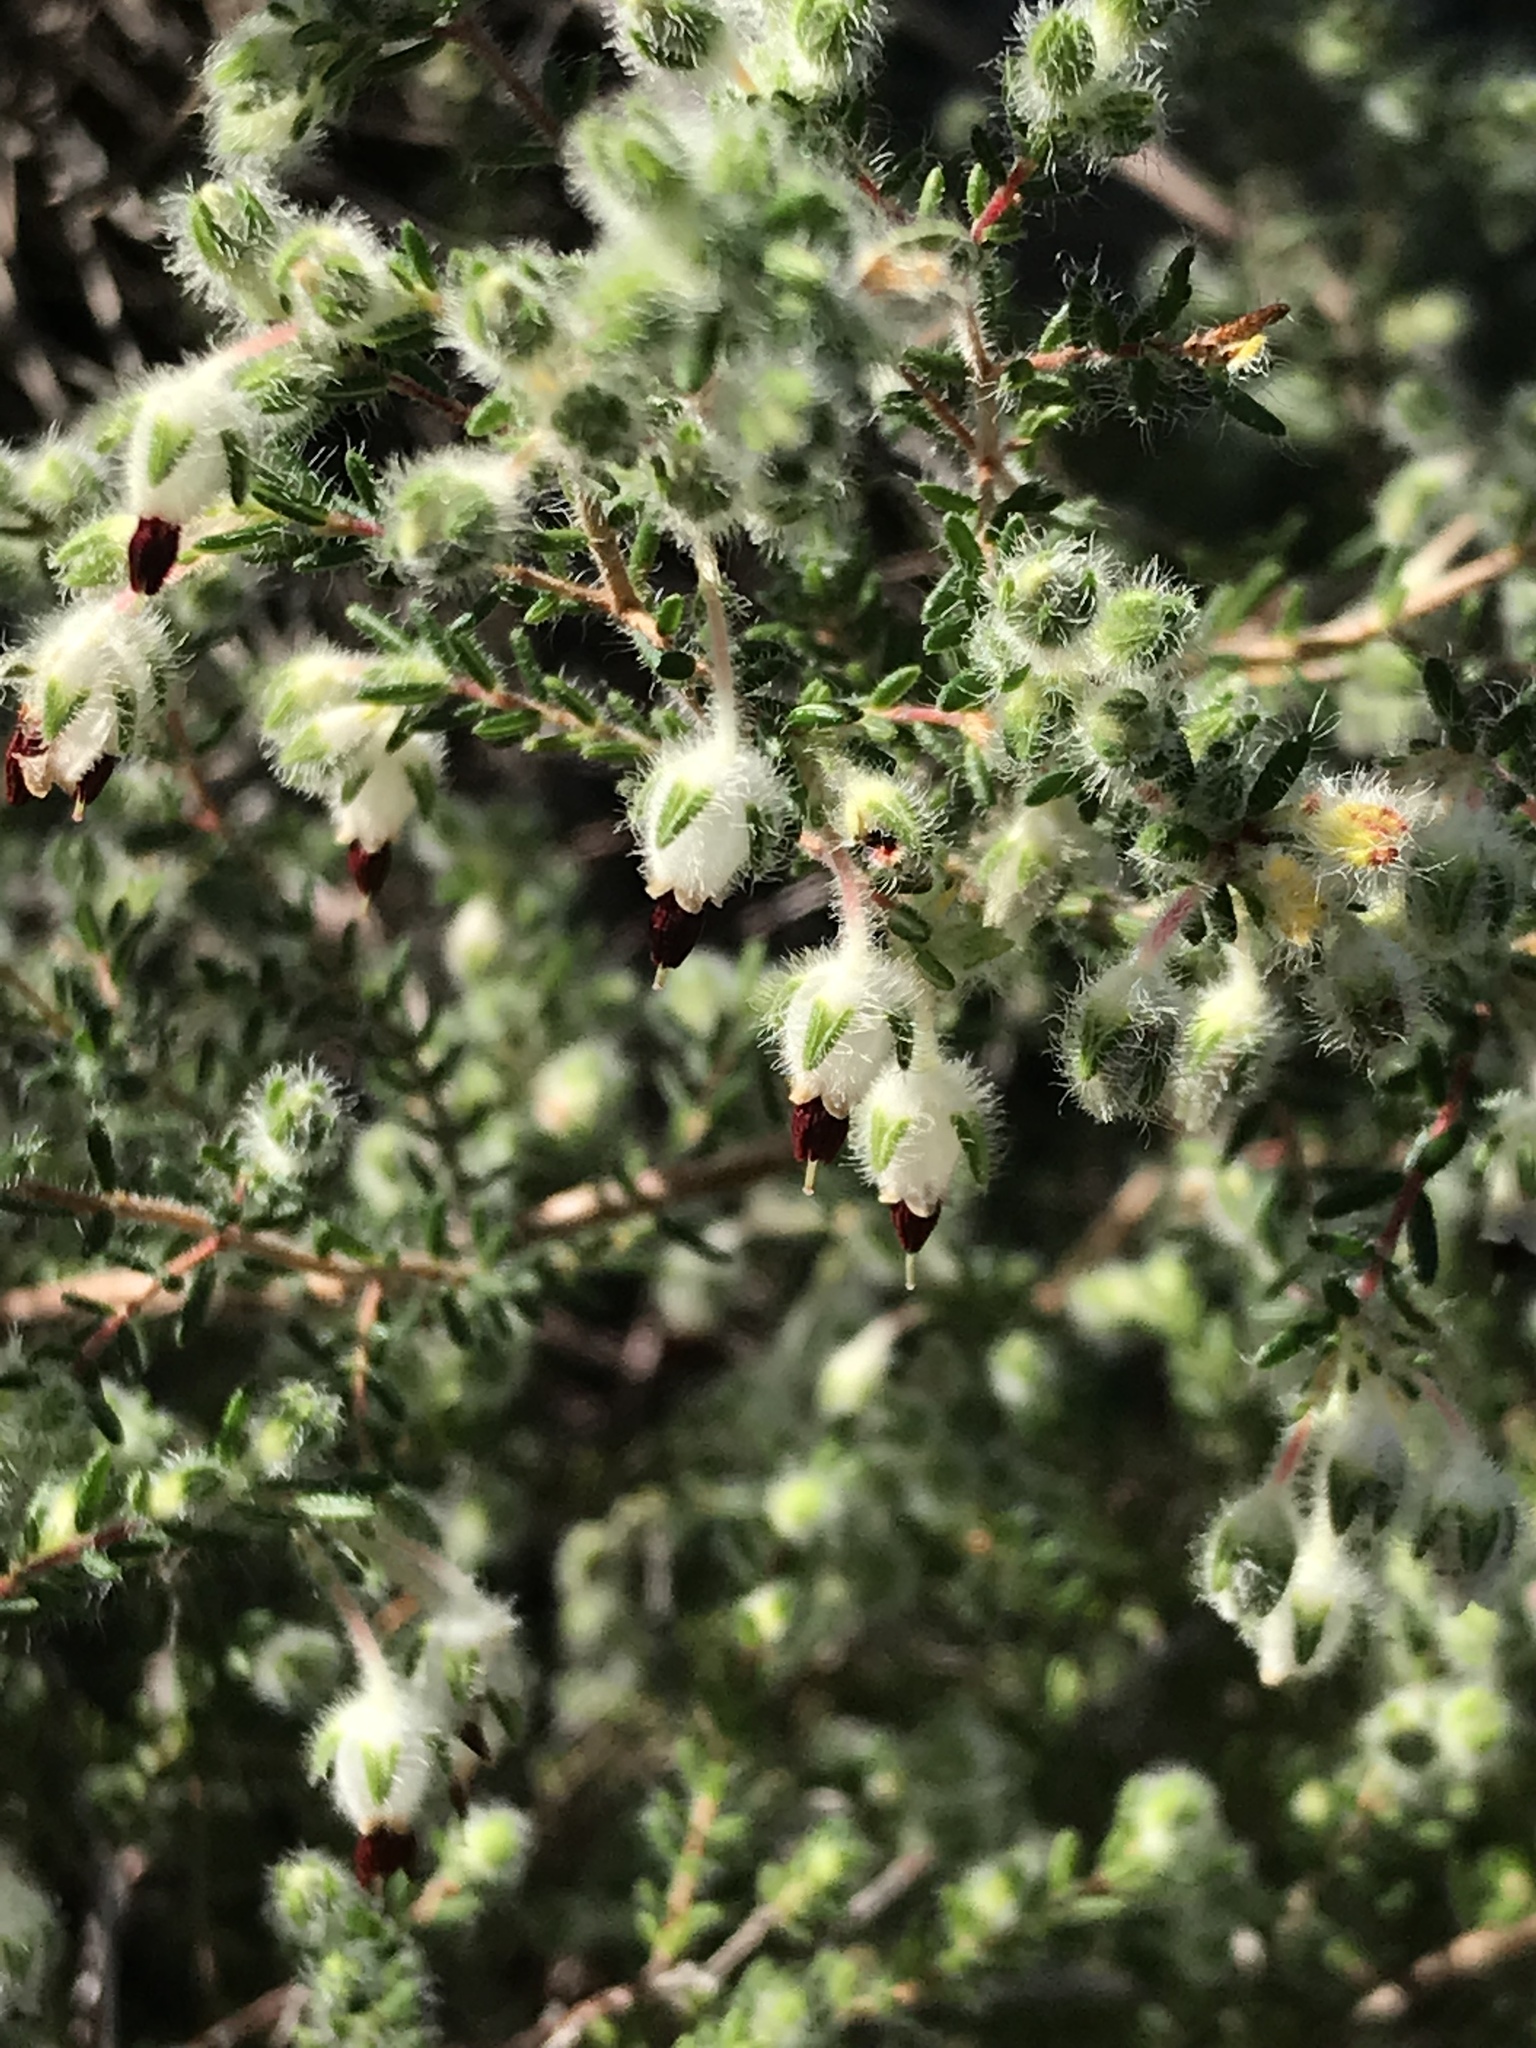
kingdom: Plantae
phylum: Tracheophyta
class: Magnoliopsida
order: Ericales
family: Ericaceae
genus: Erica
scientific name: Erica villosa
